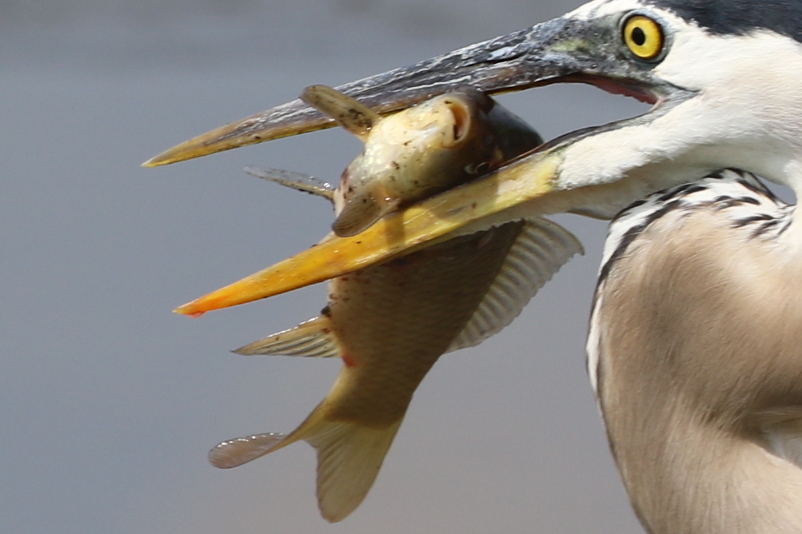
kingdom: Animalia
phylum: Chordata
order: Cypriniformes
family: Cyprinidae
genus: Carassius
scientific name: Carassius auratus
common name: Goldfish
